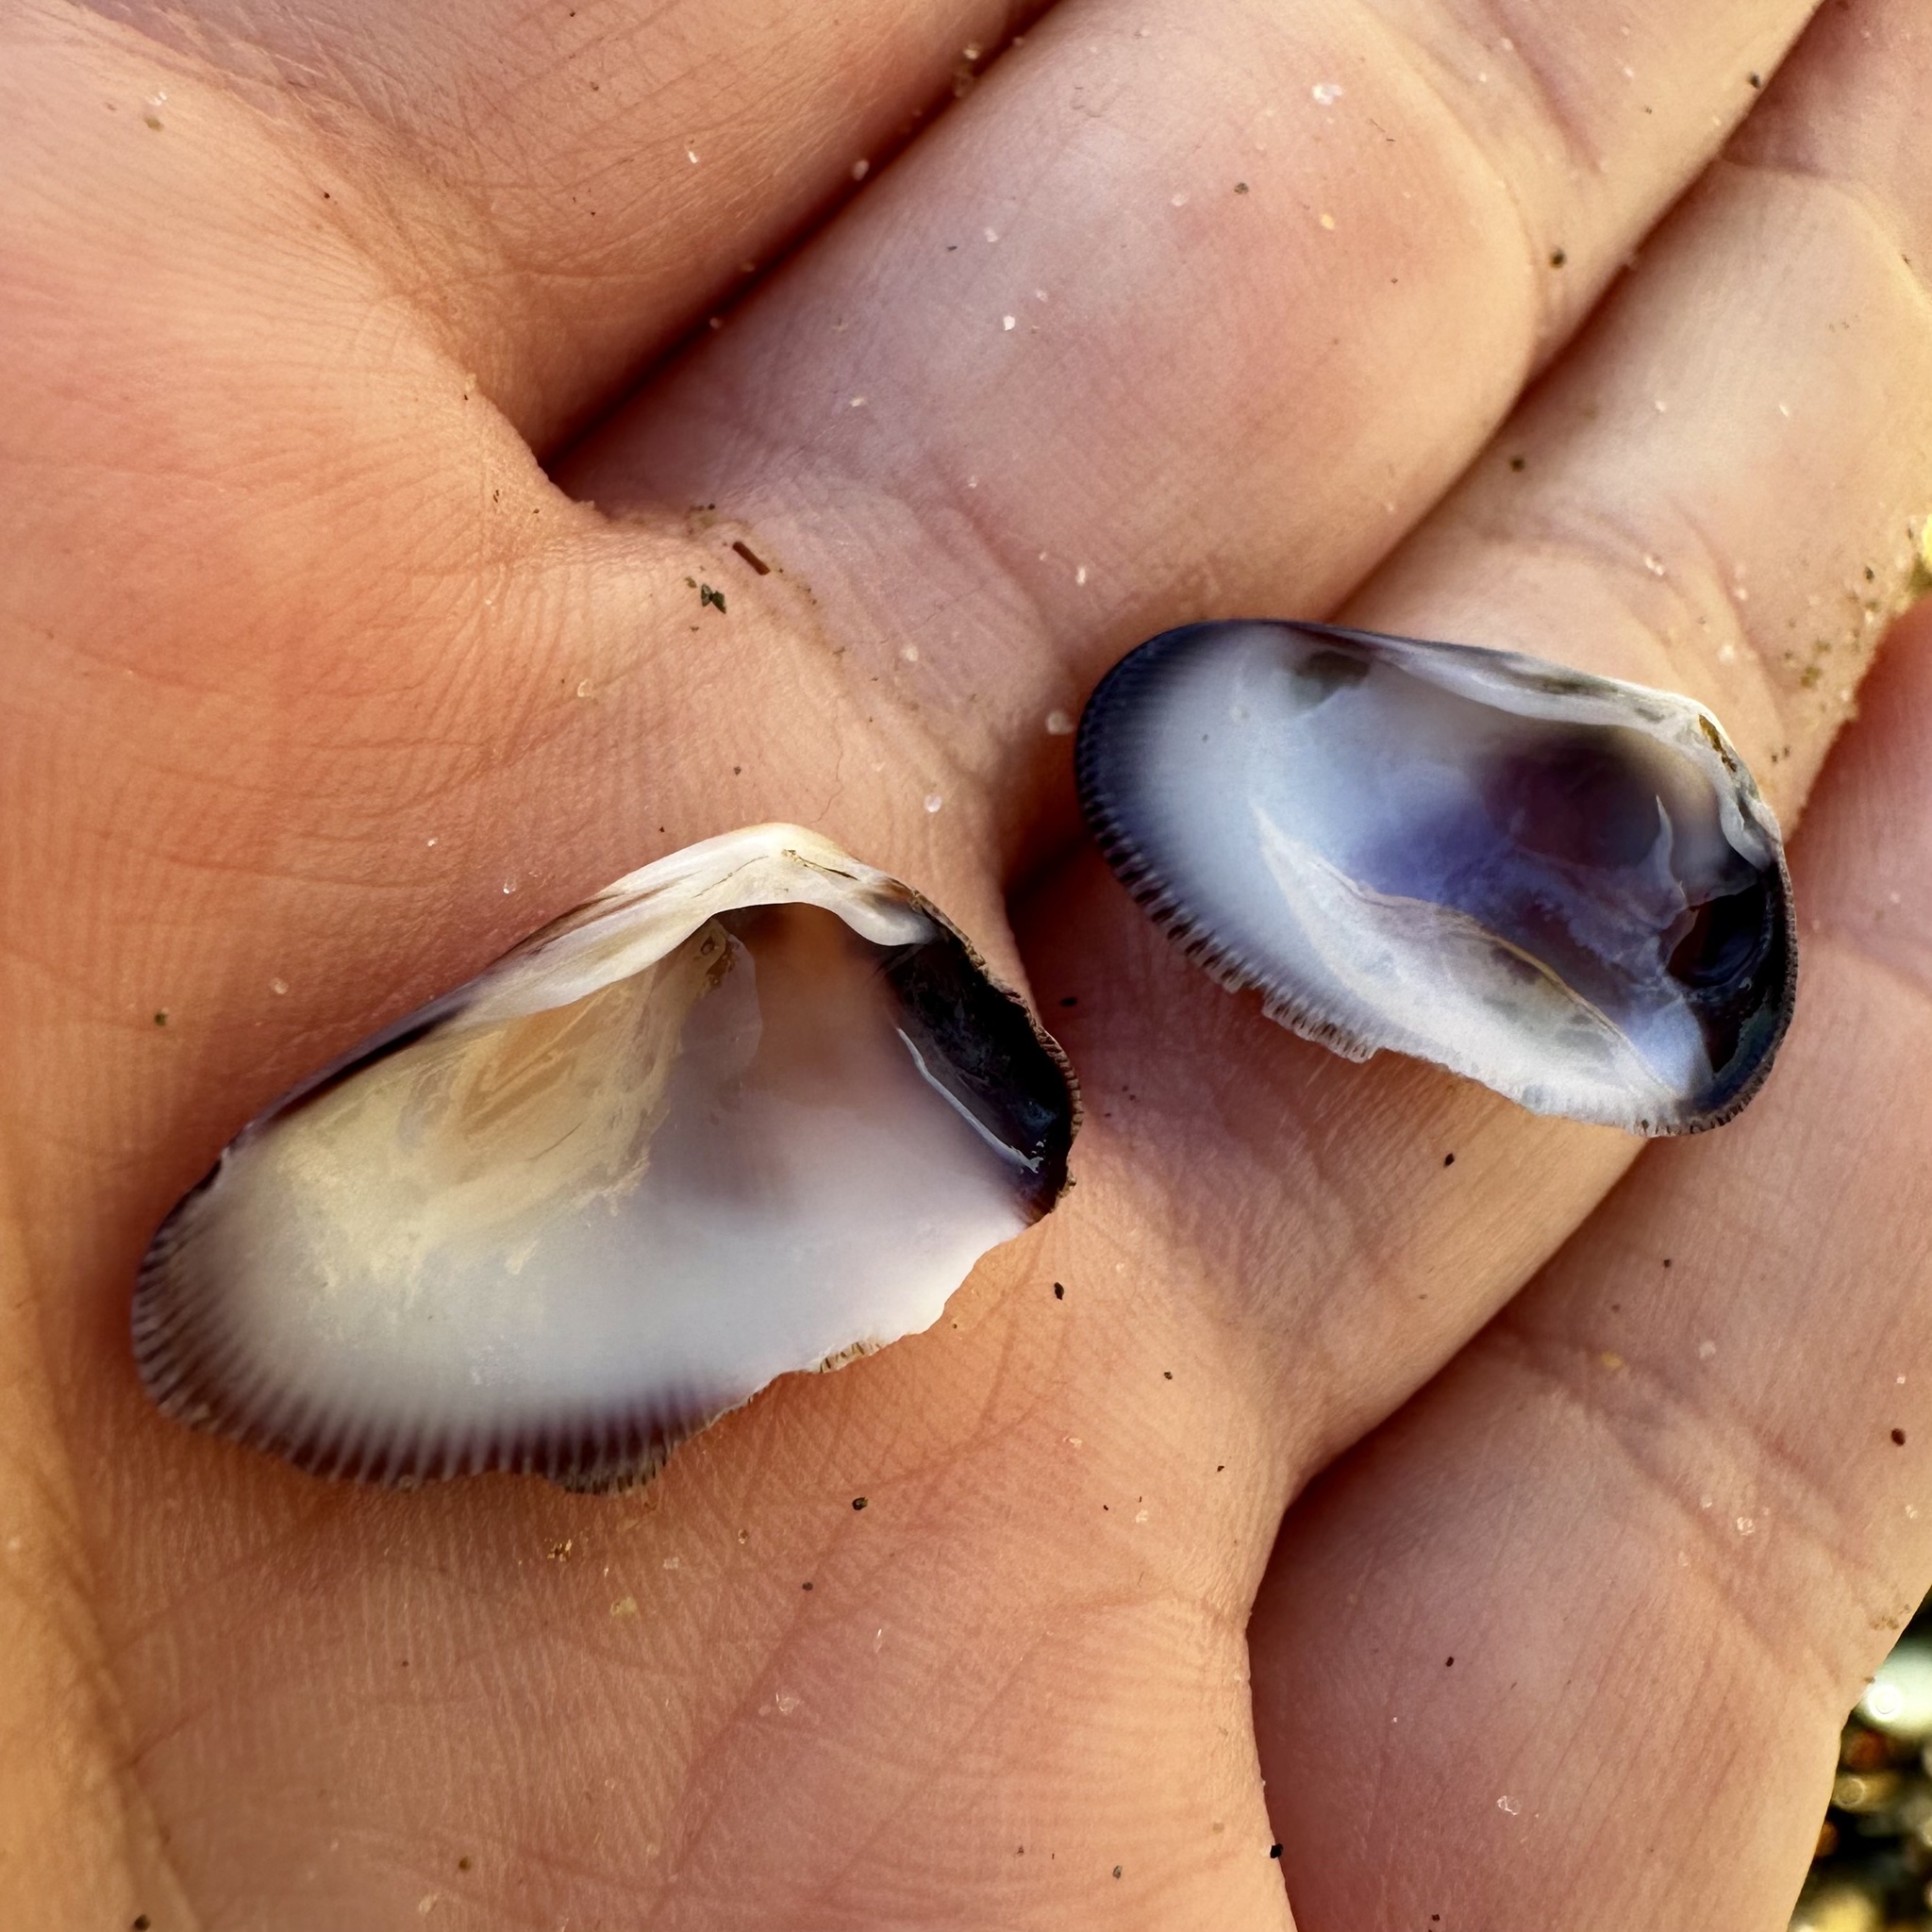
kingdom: Animalia
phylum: Mollusca
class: Bivalvia
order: Cardiida
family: Donacidae
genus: Donax
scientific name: Donax gouldii
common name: Gould beanclam
